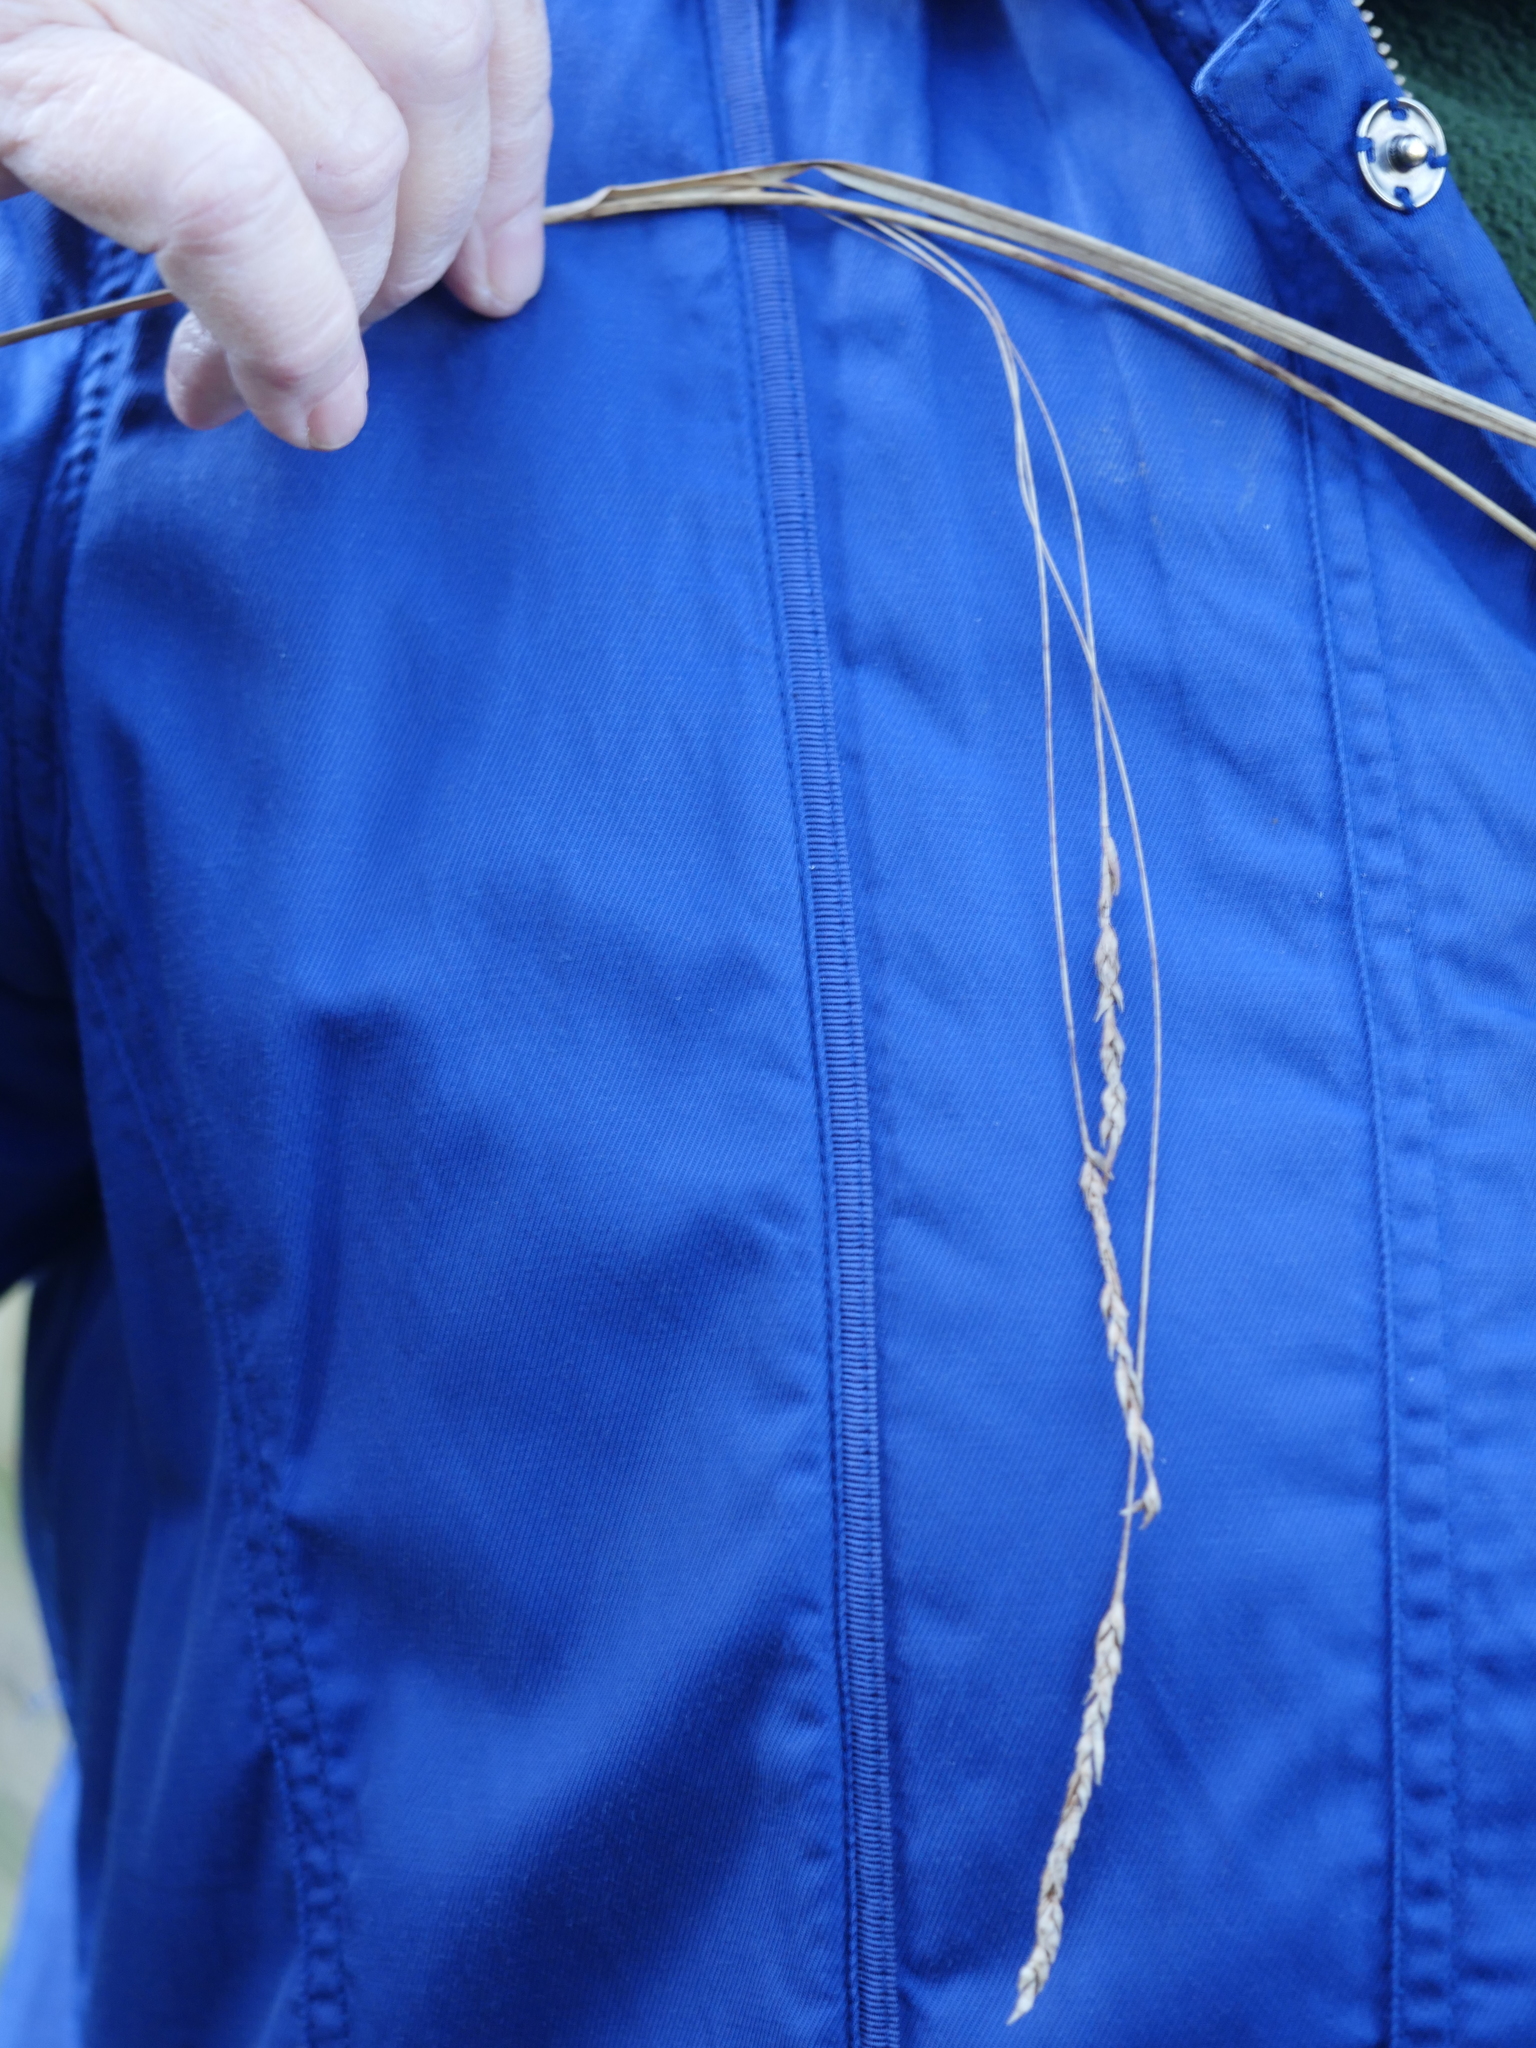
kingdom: Plantae
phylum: Tracheophyta
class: Liliopsida
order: Poales
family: Cyperaceae
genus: Carex
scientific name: Carex longebrachiata
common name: Drooping sedge
